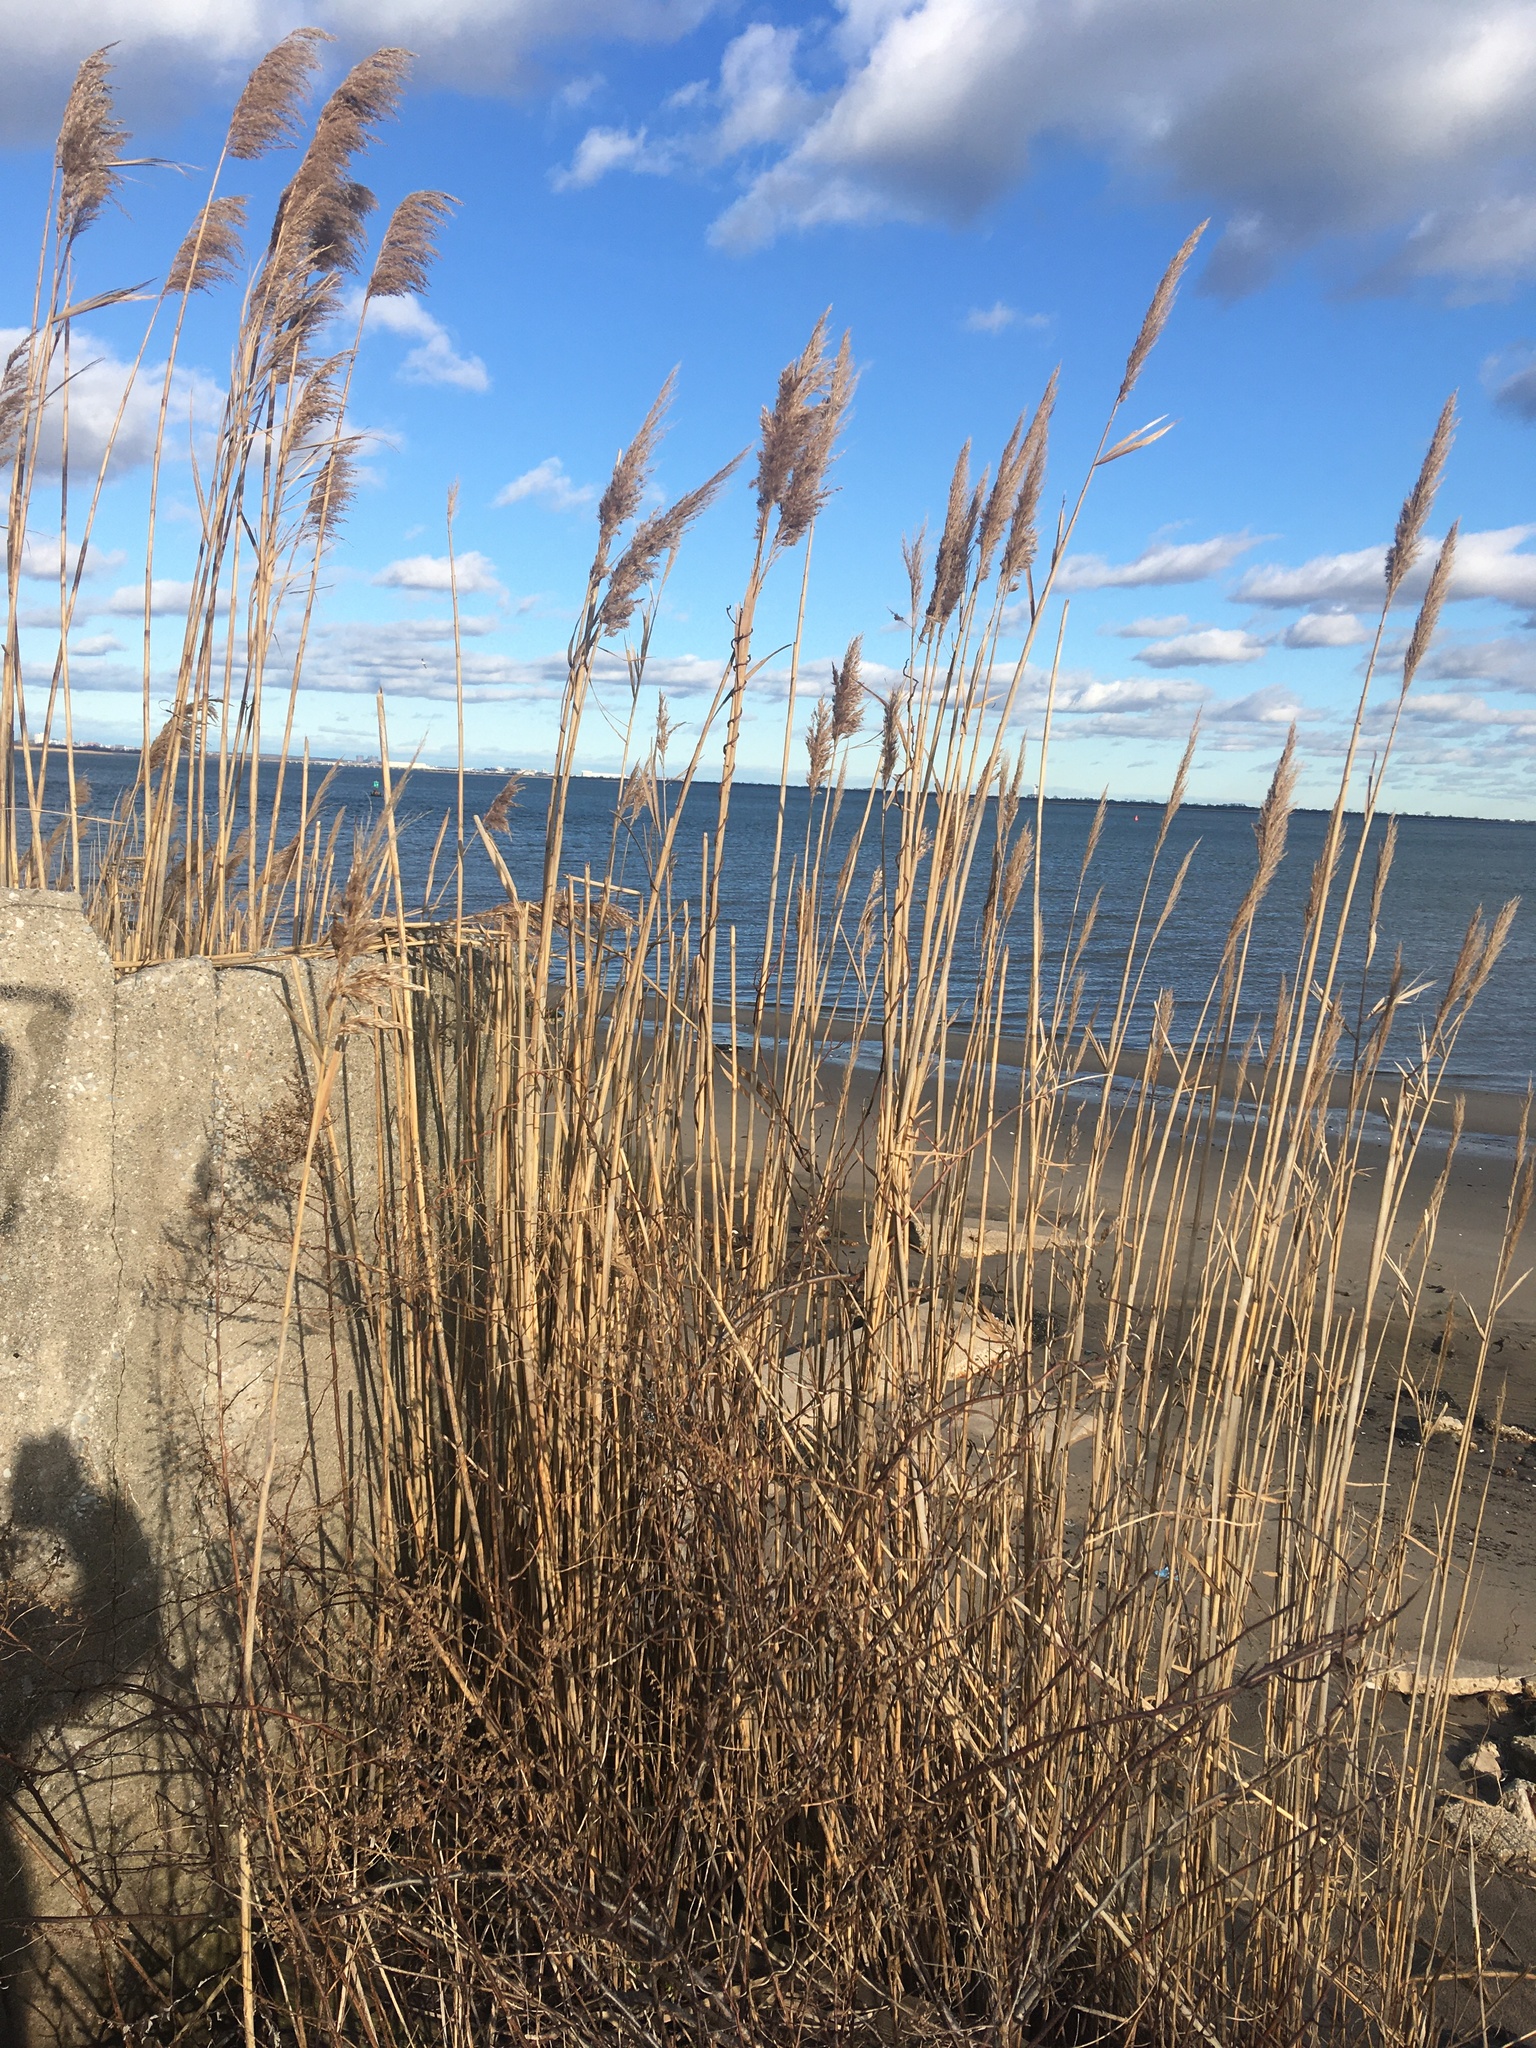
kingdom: Plantae
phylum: Tracheophyta
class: Liliopsida
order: Poales
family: Poaceae
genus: Phragmites
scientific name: Phragmites australis
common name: Common reed
